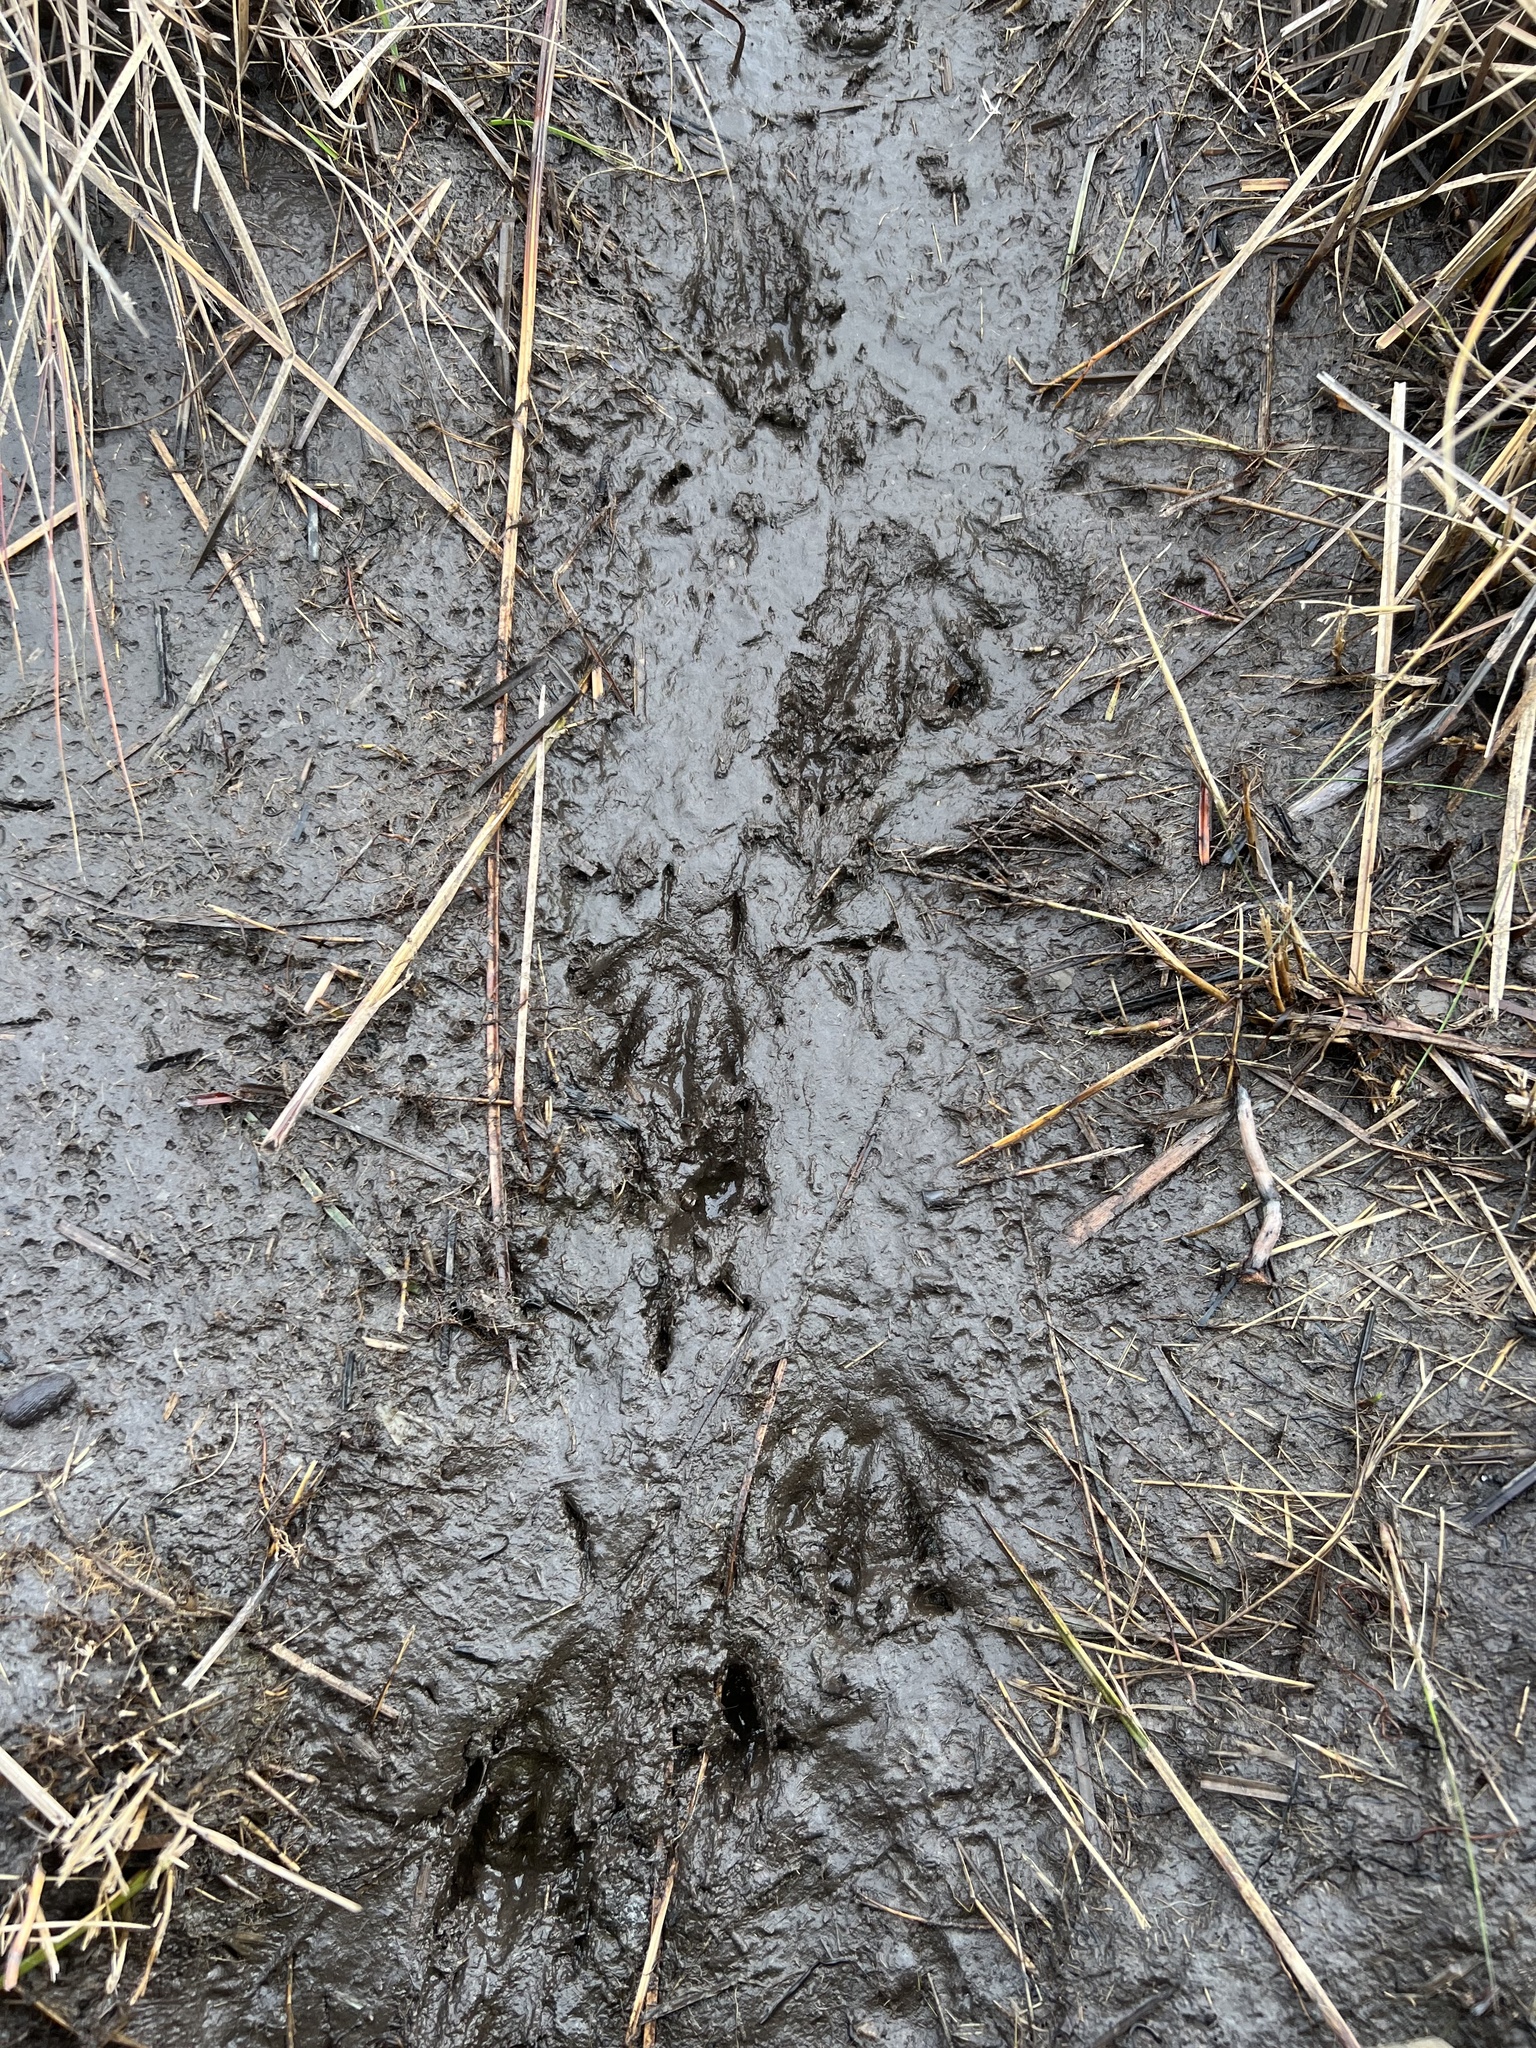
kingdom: Animalia
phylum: Chordata
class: Mammalia
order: Carnivora
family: Procyonidae
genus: Procyon
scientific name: Procyon lotor
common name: Raccoon
